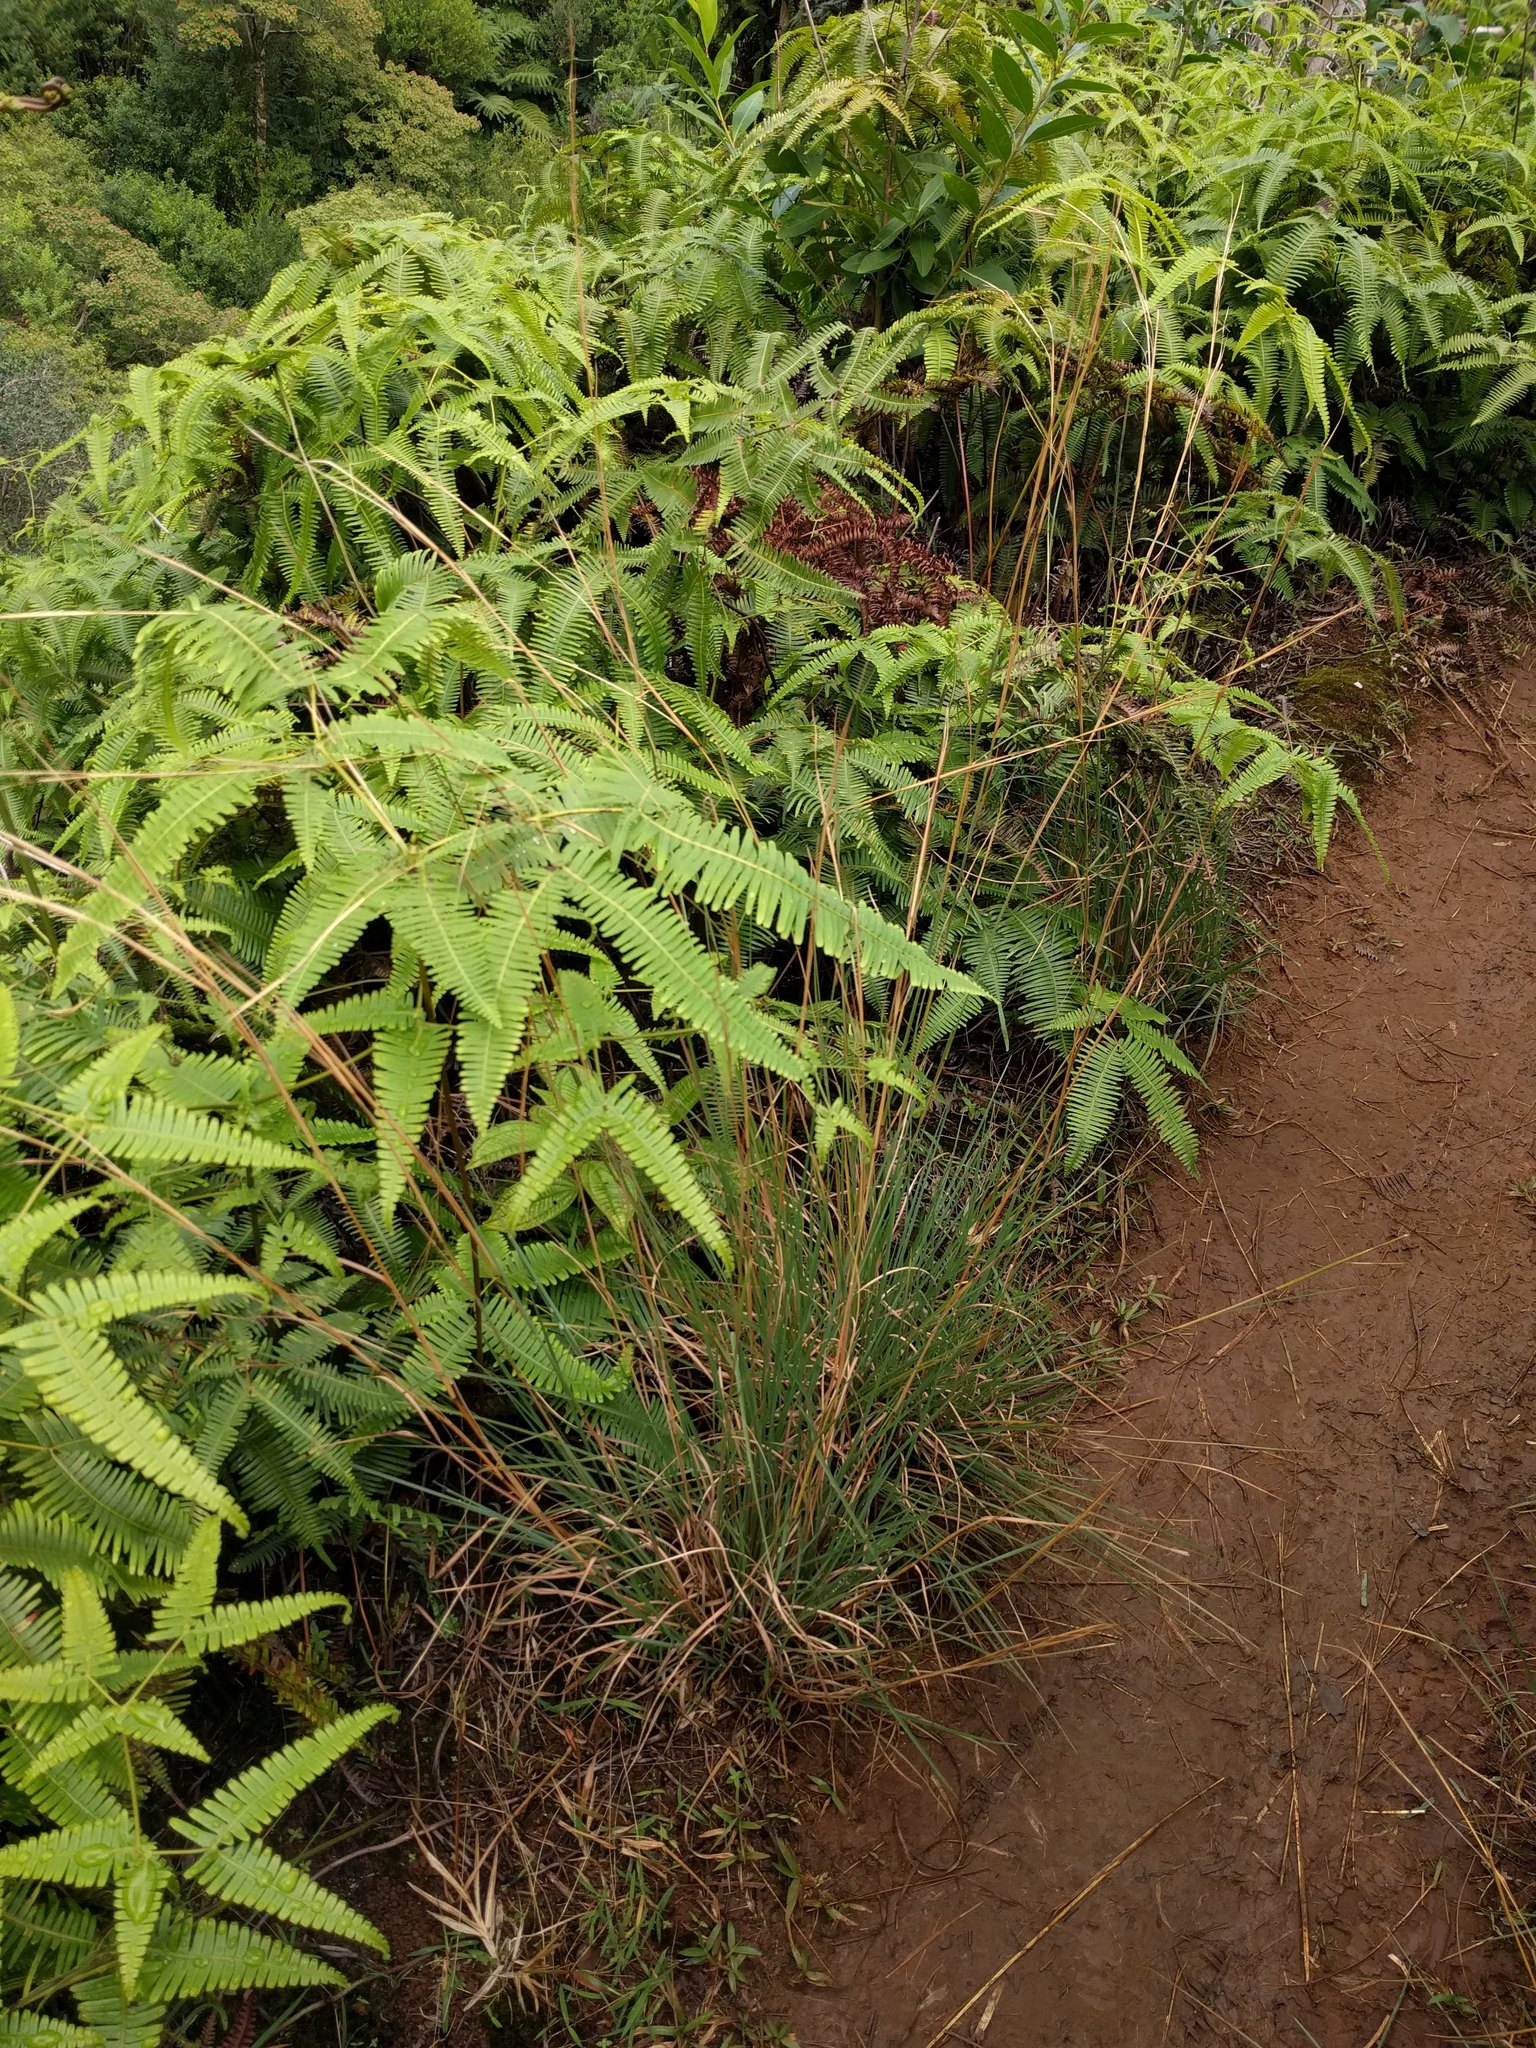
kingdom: Plantae
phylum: Tracheophyta
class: Liliopsida
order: Poales
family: Poaceae
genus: Andropogon
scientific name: Andropogon virginicus
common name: Broomsedge bluestem
